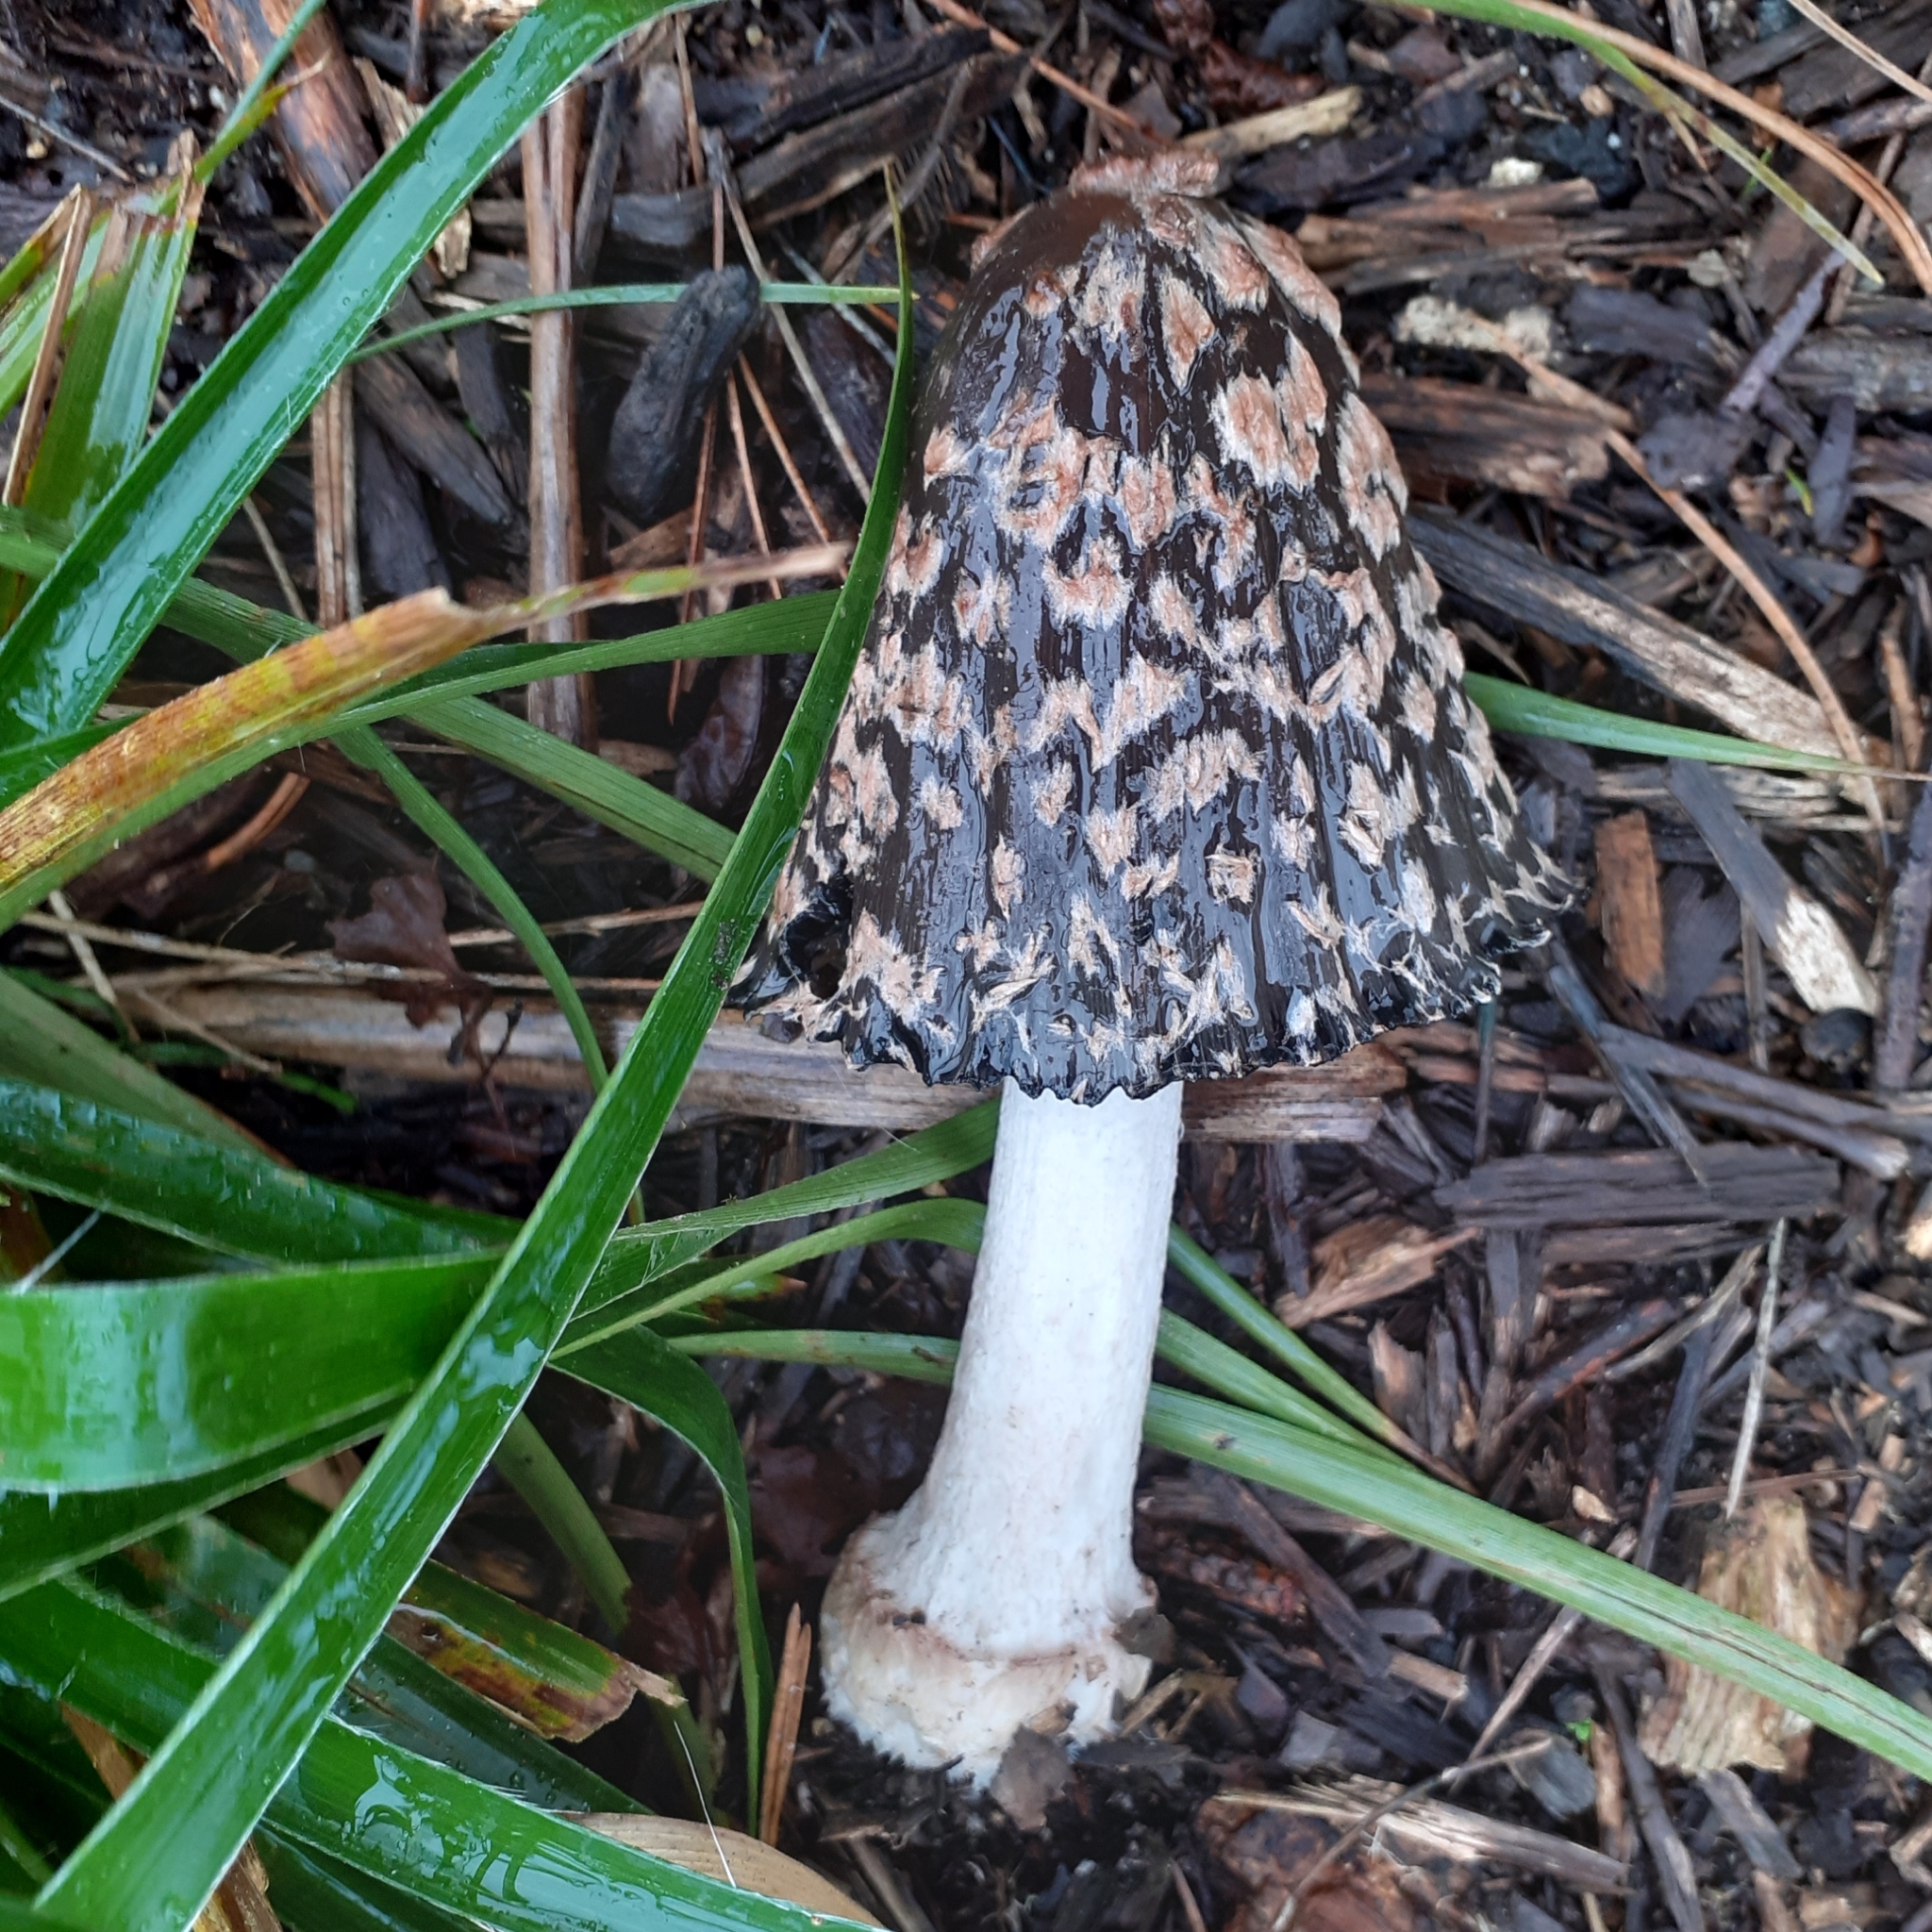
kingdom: Fungi
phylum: Basidiomycota
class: Agaricomycetes
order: Agaricales
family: Psathyrellaceae
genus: Coprinopsis
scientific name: Coprinopsis picacea
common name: Magpie inkcap
